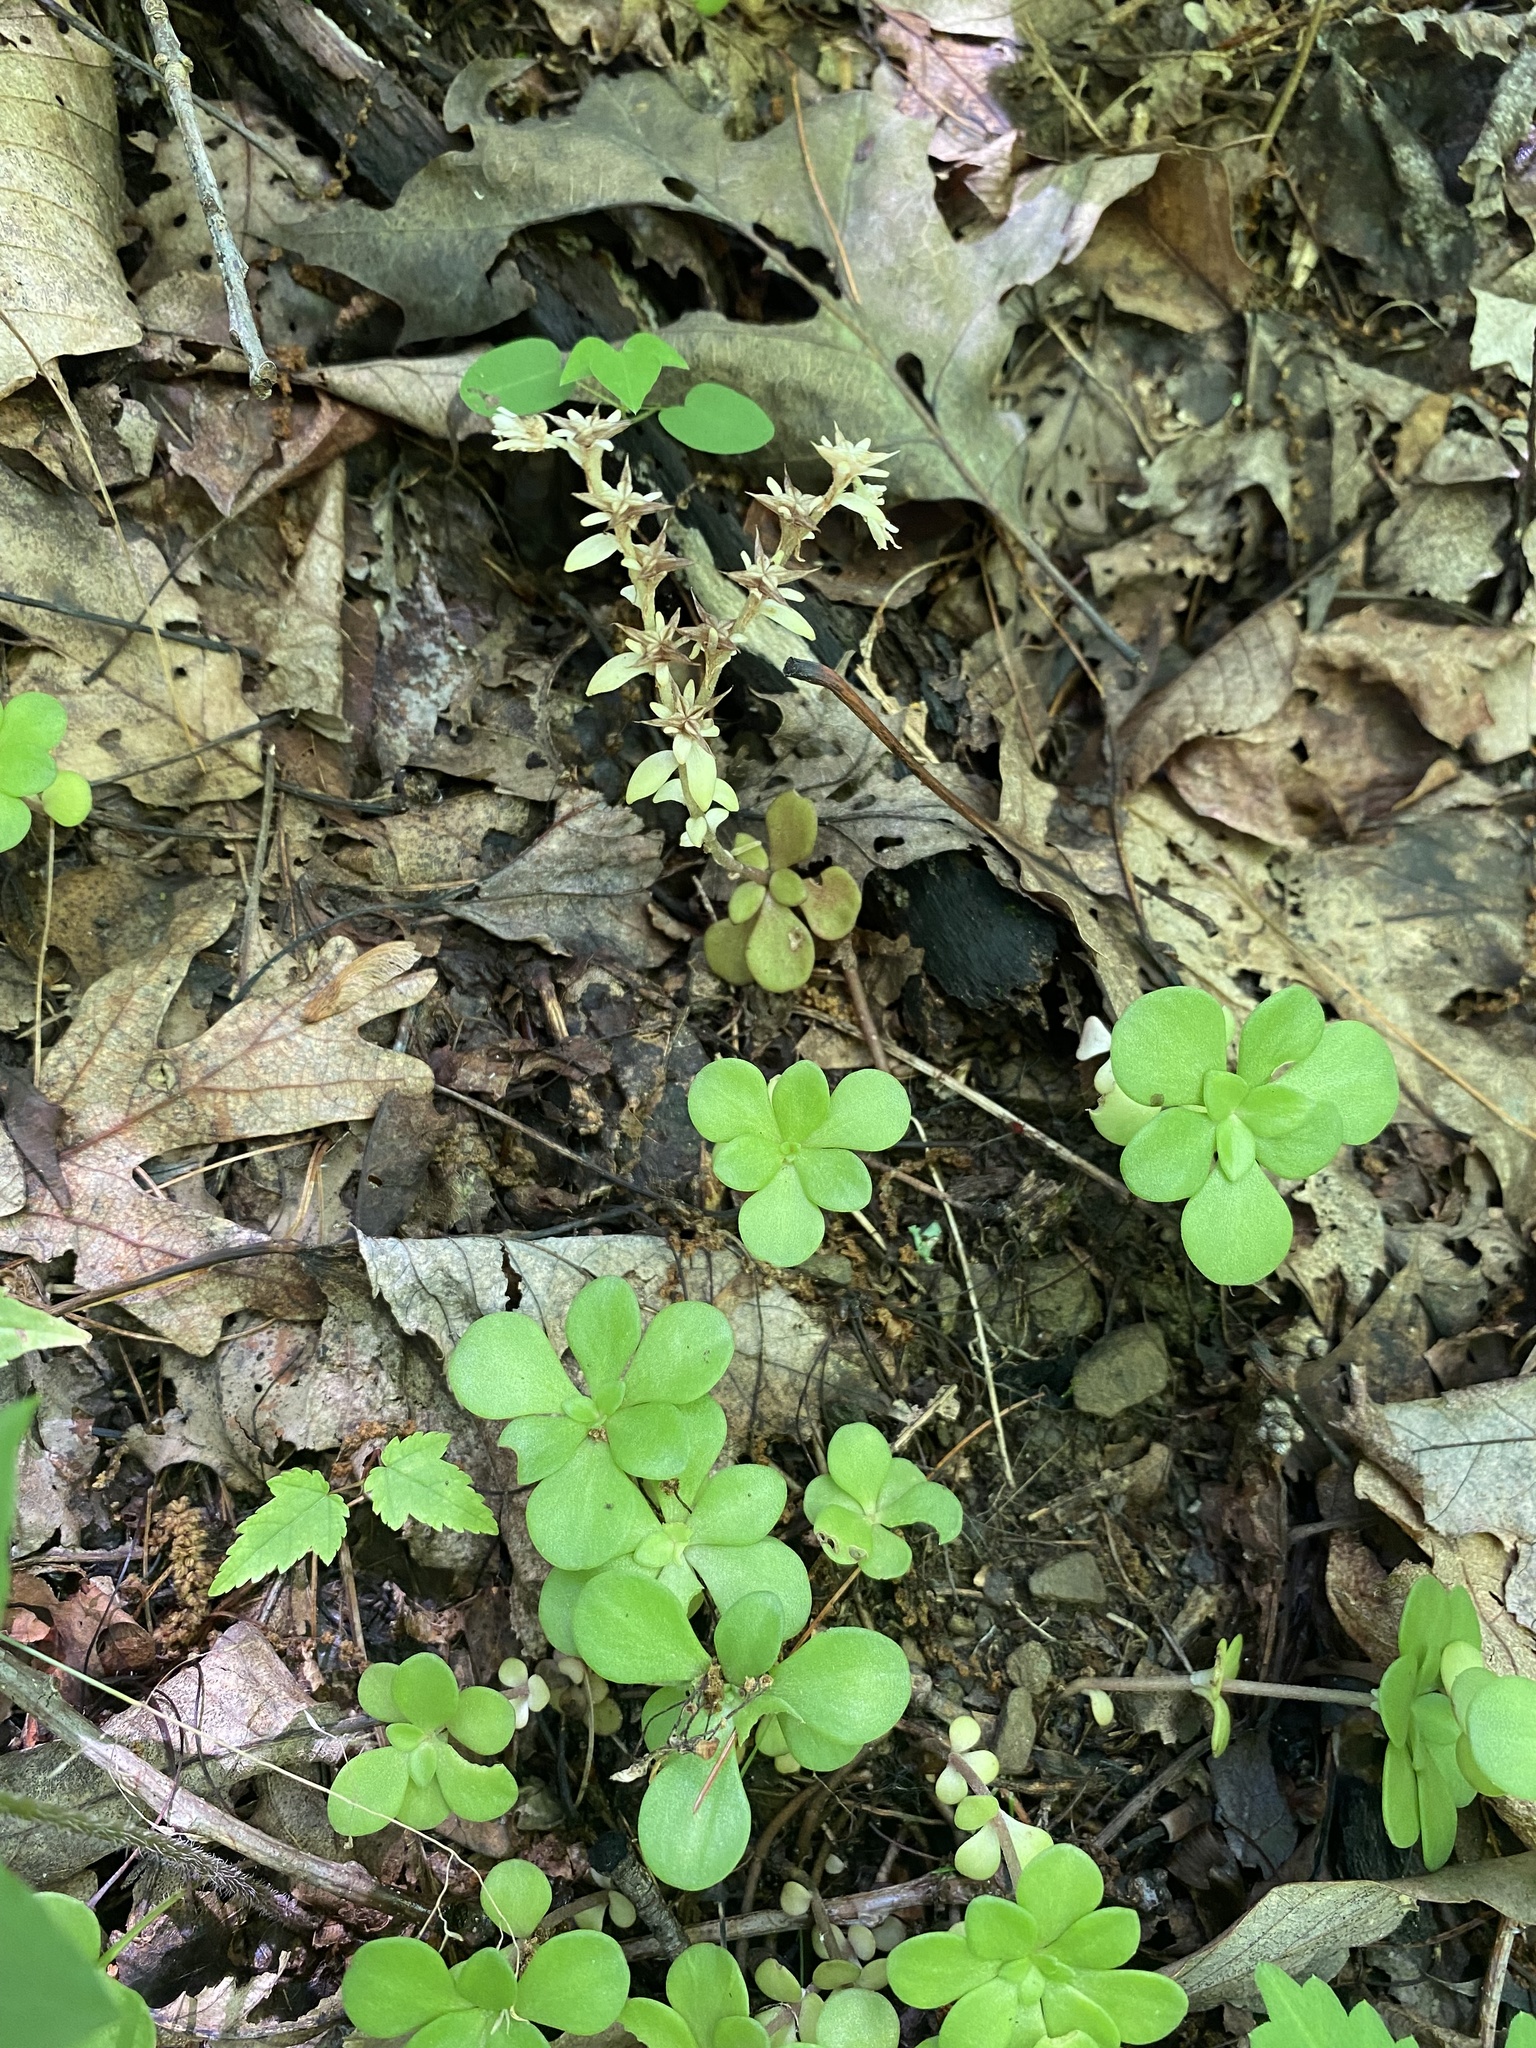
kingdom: Plantae
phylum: Tracheophyta
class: Magnoliopsida
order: Saxifragales
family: Crassulaceae
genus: Sedum
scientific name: Sedum ternatum
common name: Wild stonecrop
